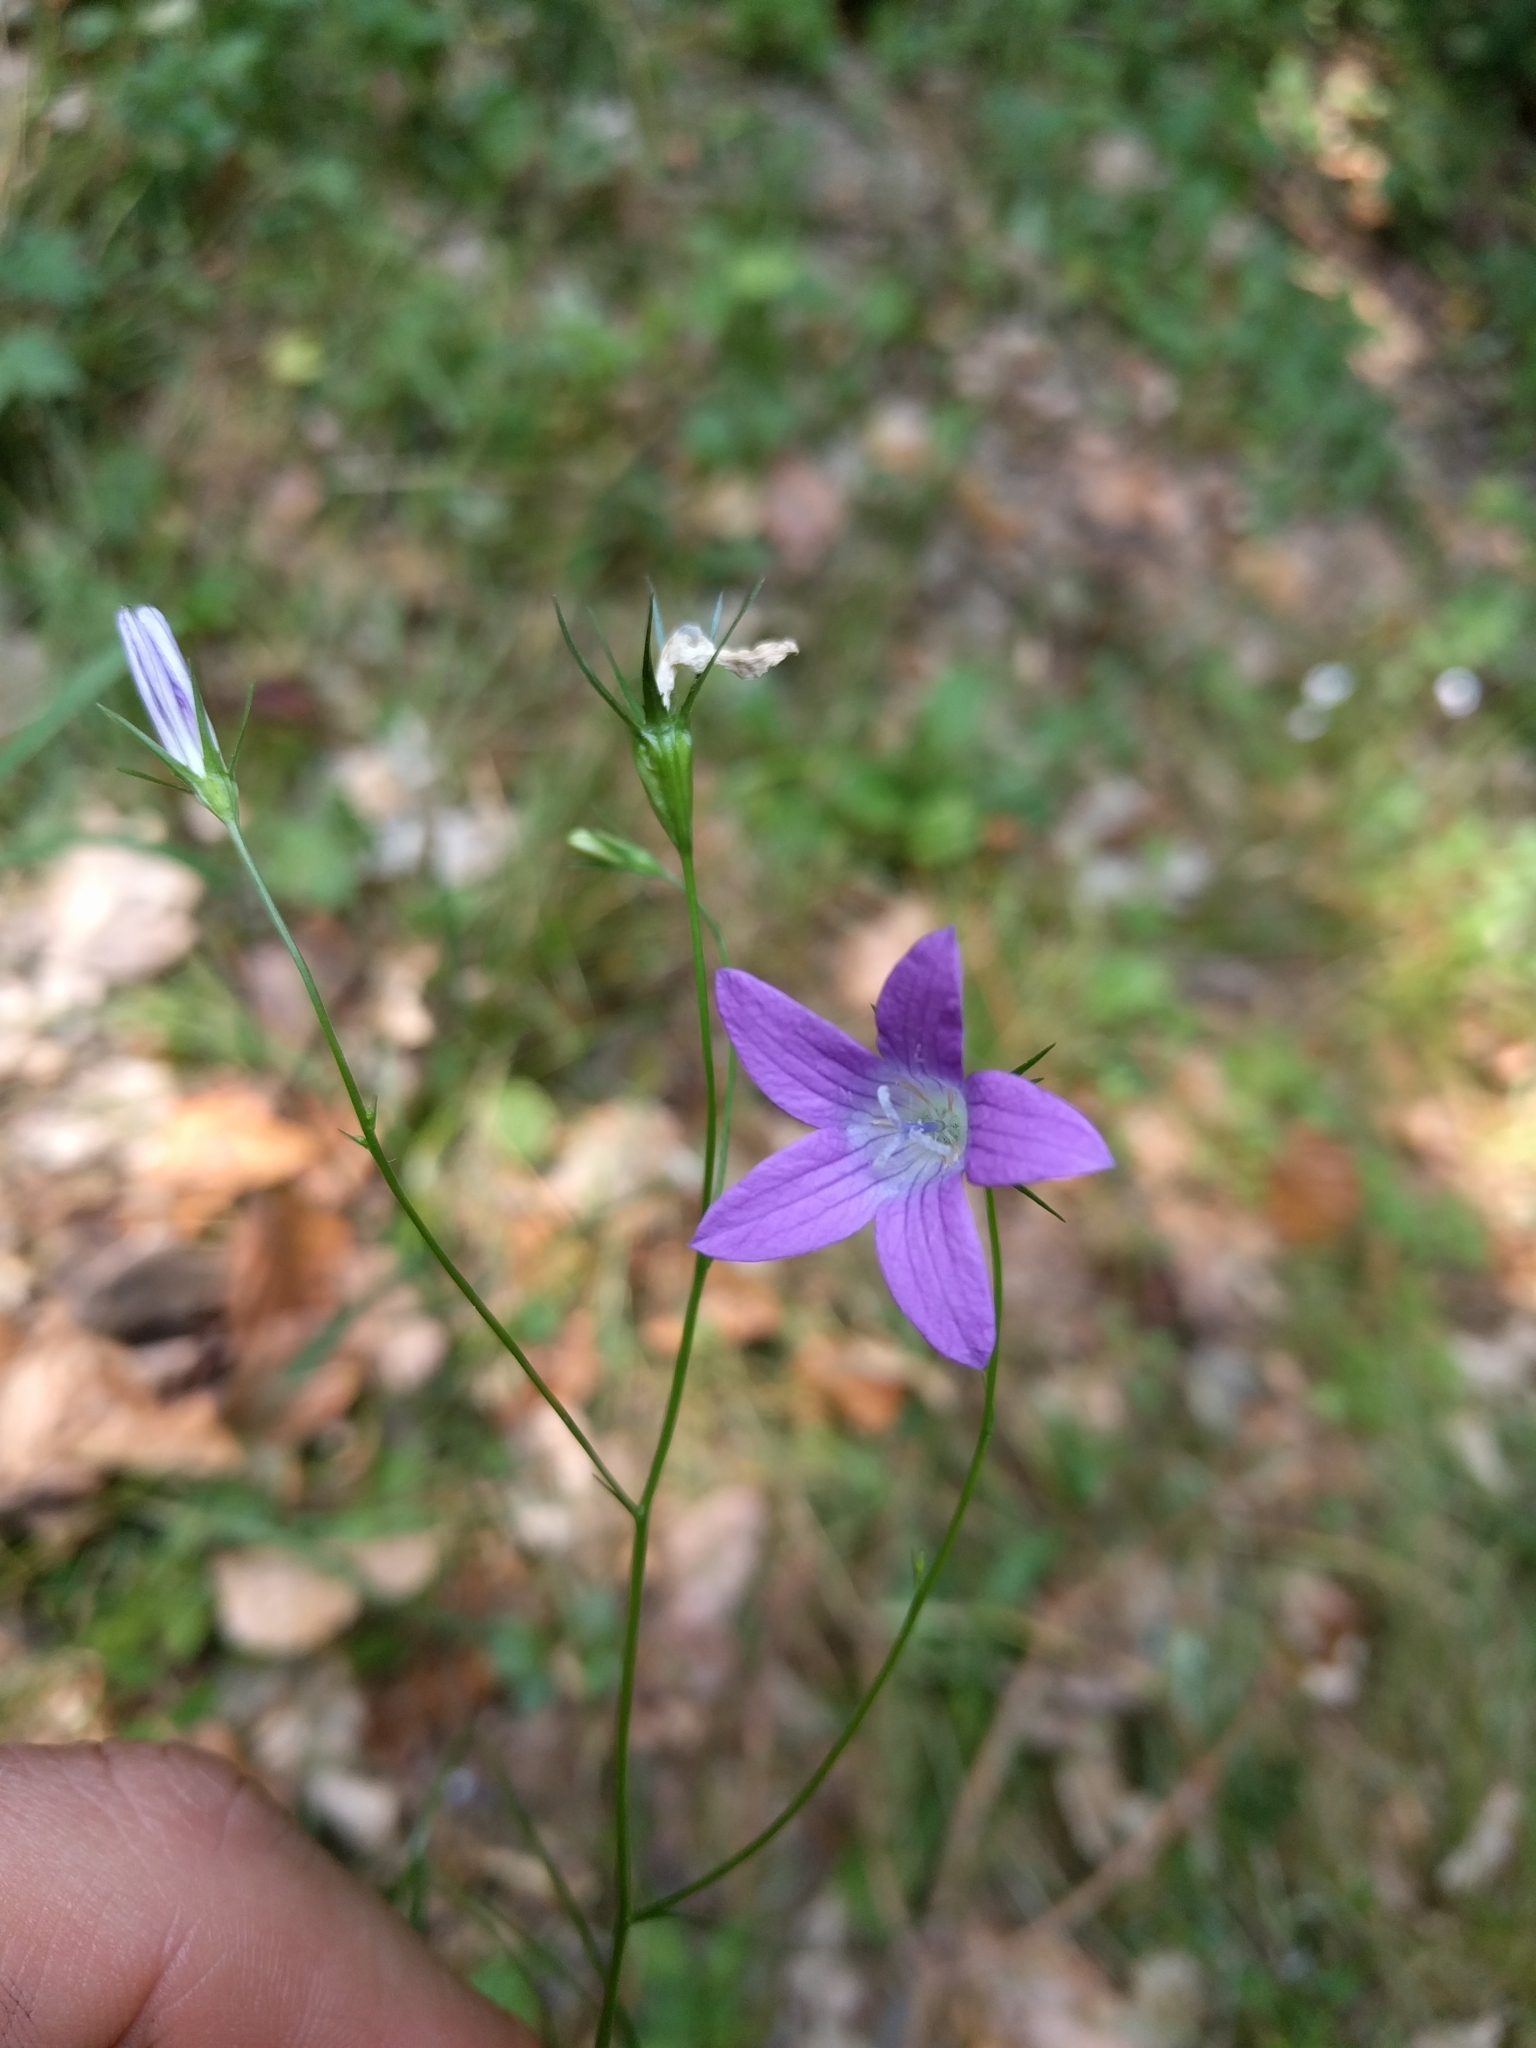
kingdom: Plantae
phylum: Tracheophyta
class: Magnoliopsida
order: Asterales
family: Campanulaceae
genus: Campanula
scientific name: Campanula patula
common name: Spreading bellflower
